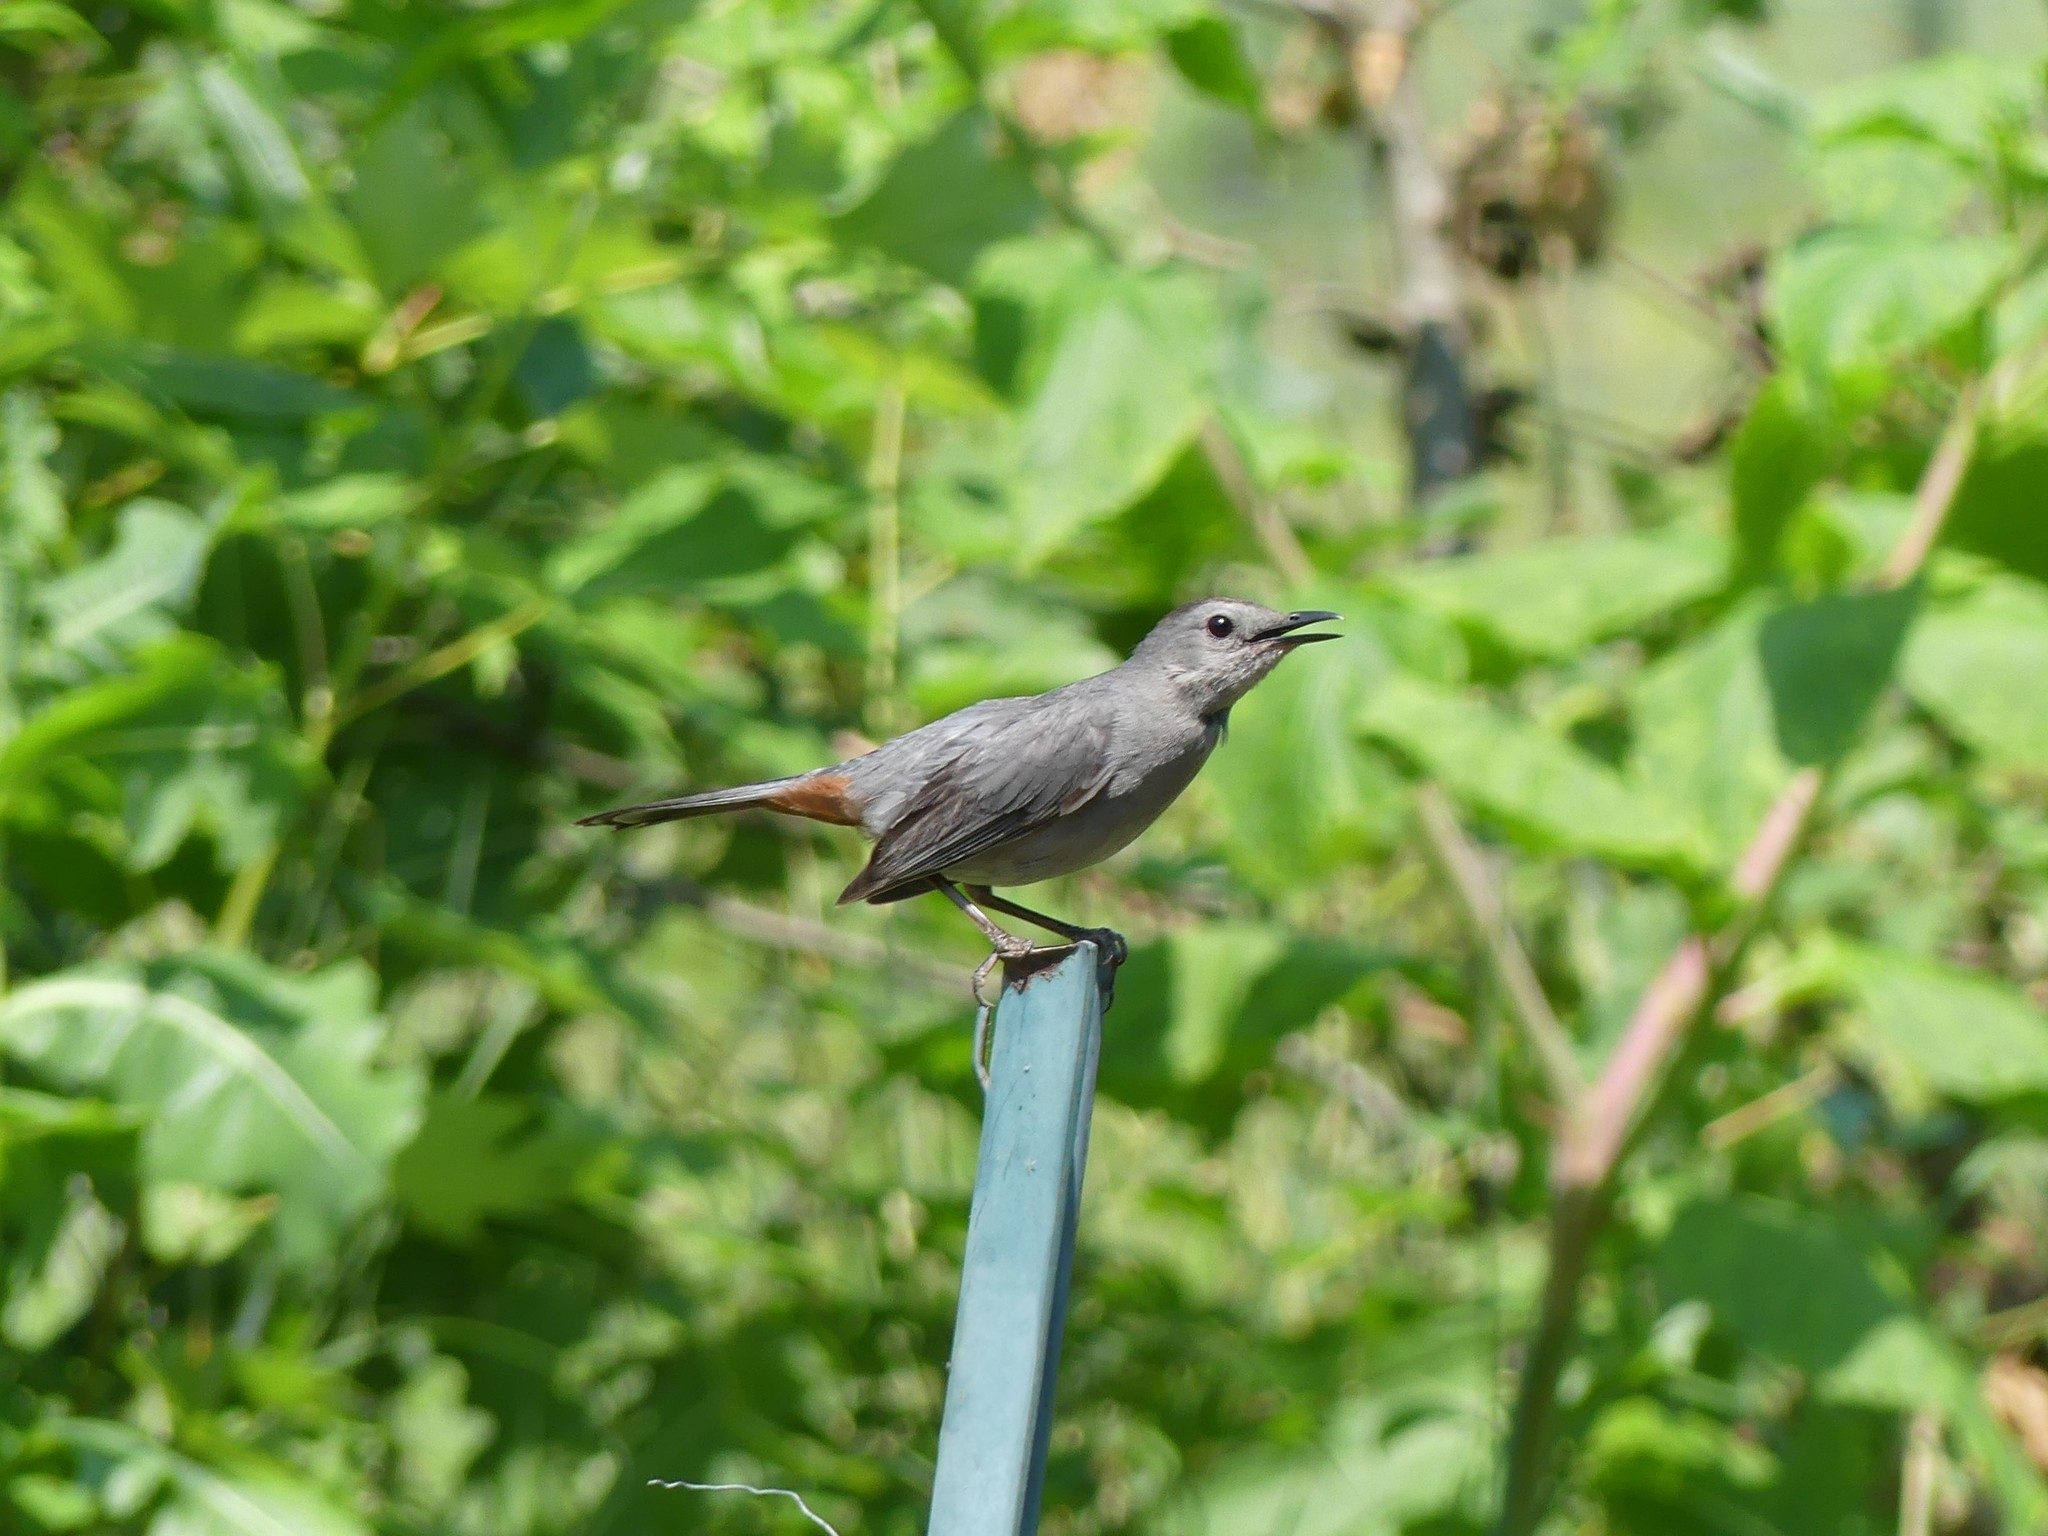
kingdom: Animalia
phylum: Chordata
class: Aves
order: Passeriformes
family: Mimidae
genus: Dumetella
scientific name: Dumetella carolinensis
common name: Gray catbird
